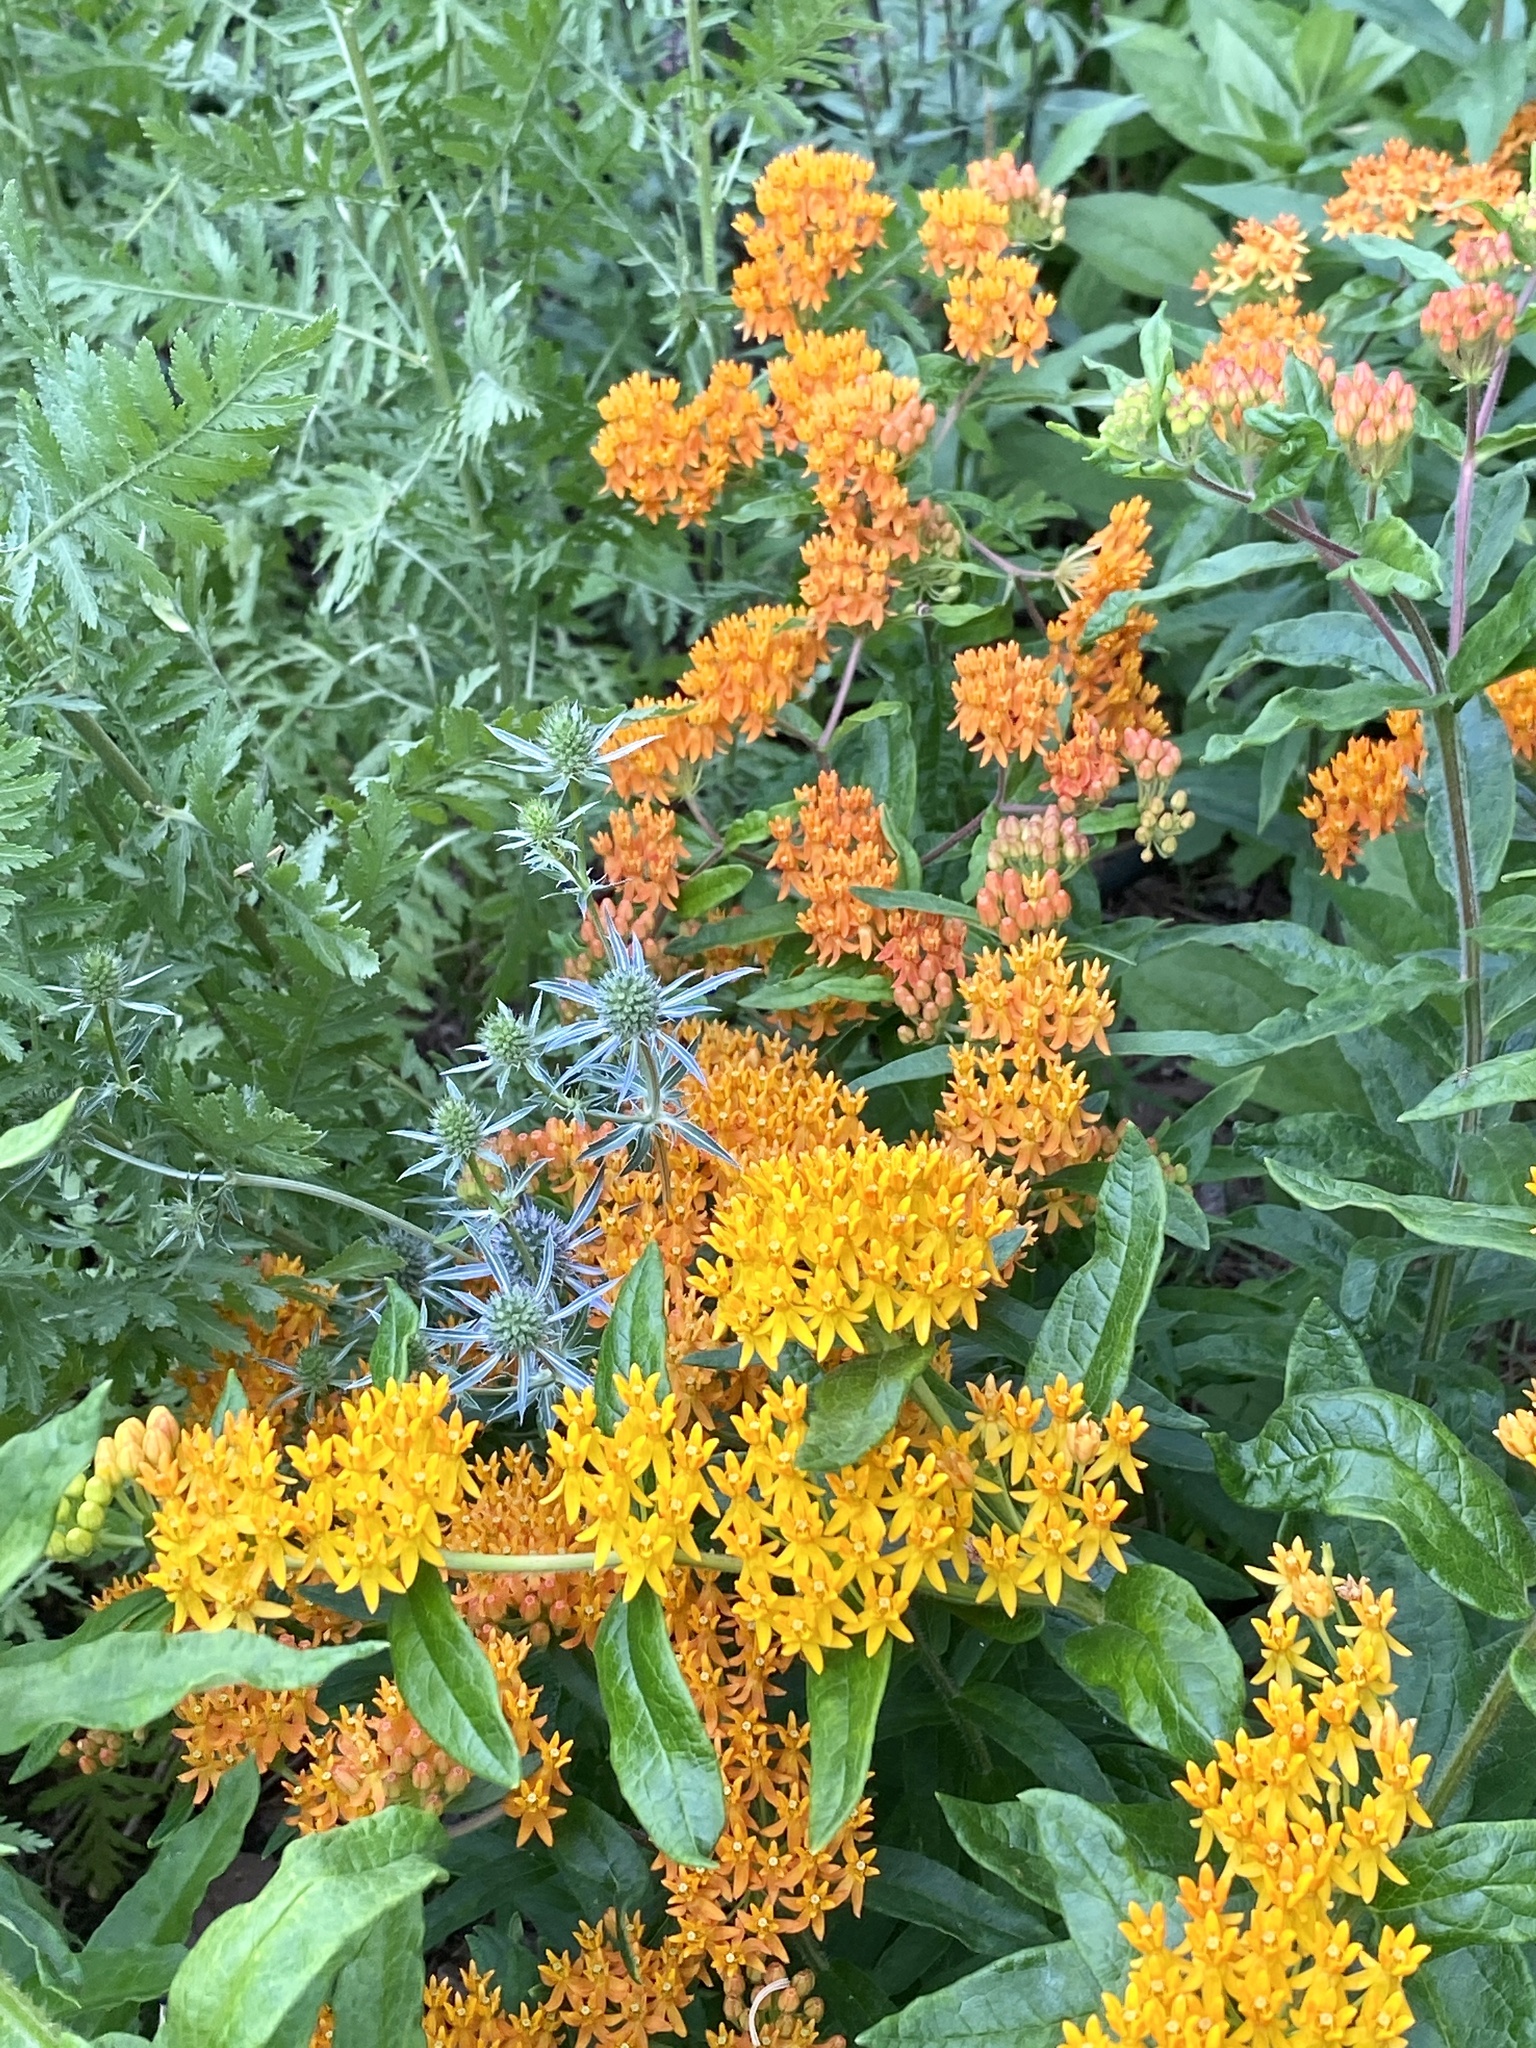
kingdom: Plantae
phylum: Tracheophyta
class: Magnoliopsida
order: Gentianales
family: Apocynaceae
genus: Asclepias
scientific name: Asclepias tuberosa
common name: Butterfly milkweed
